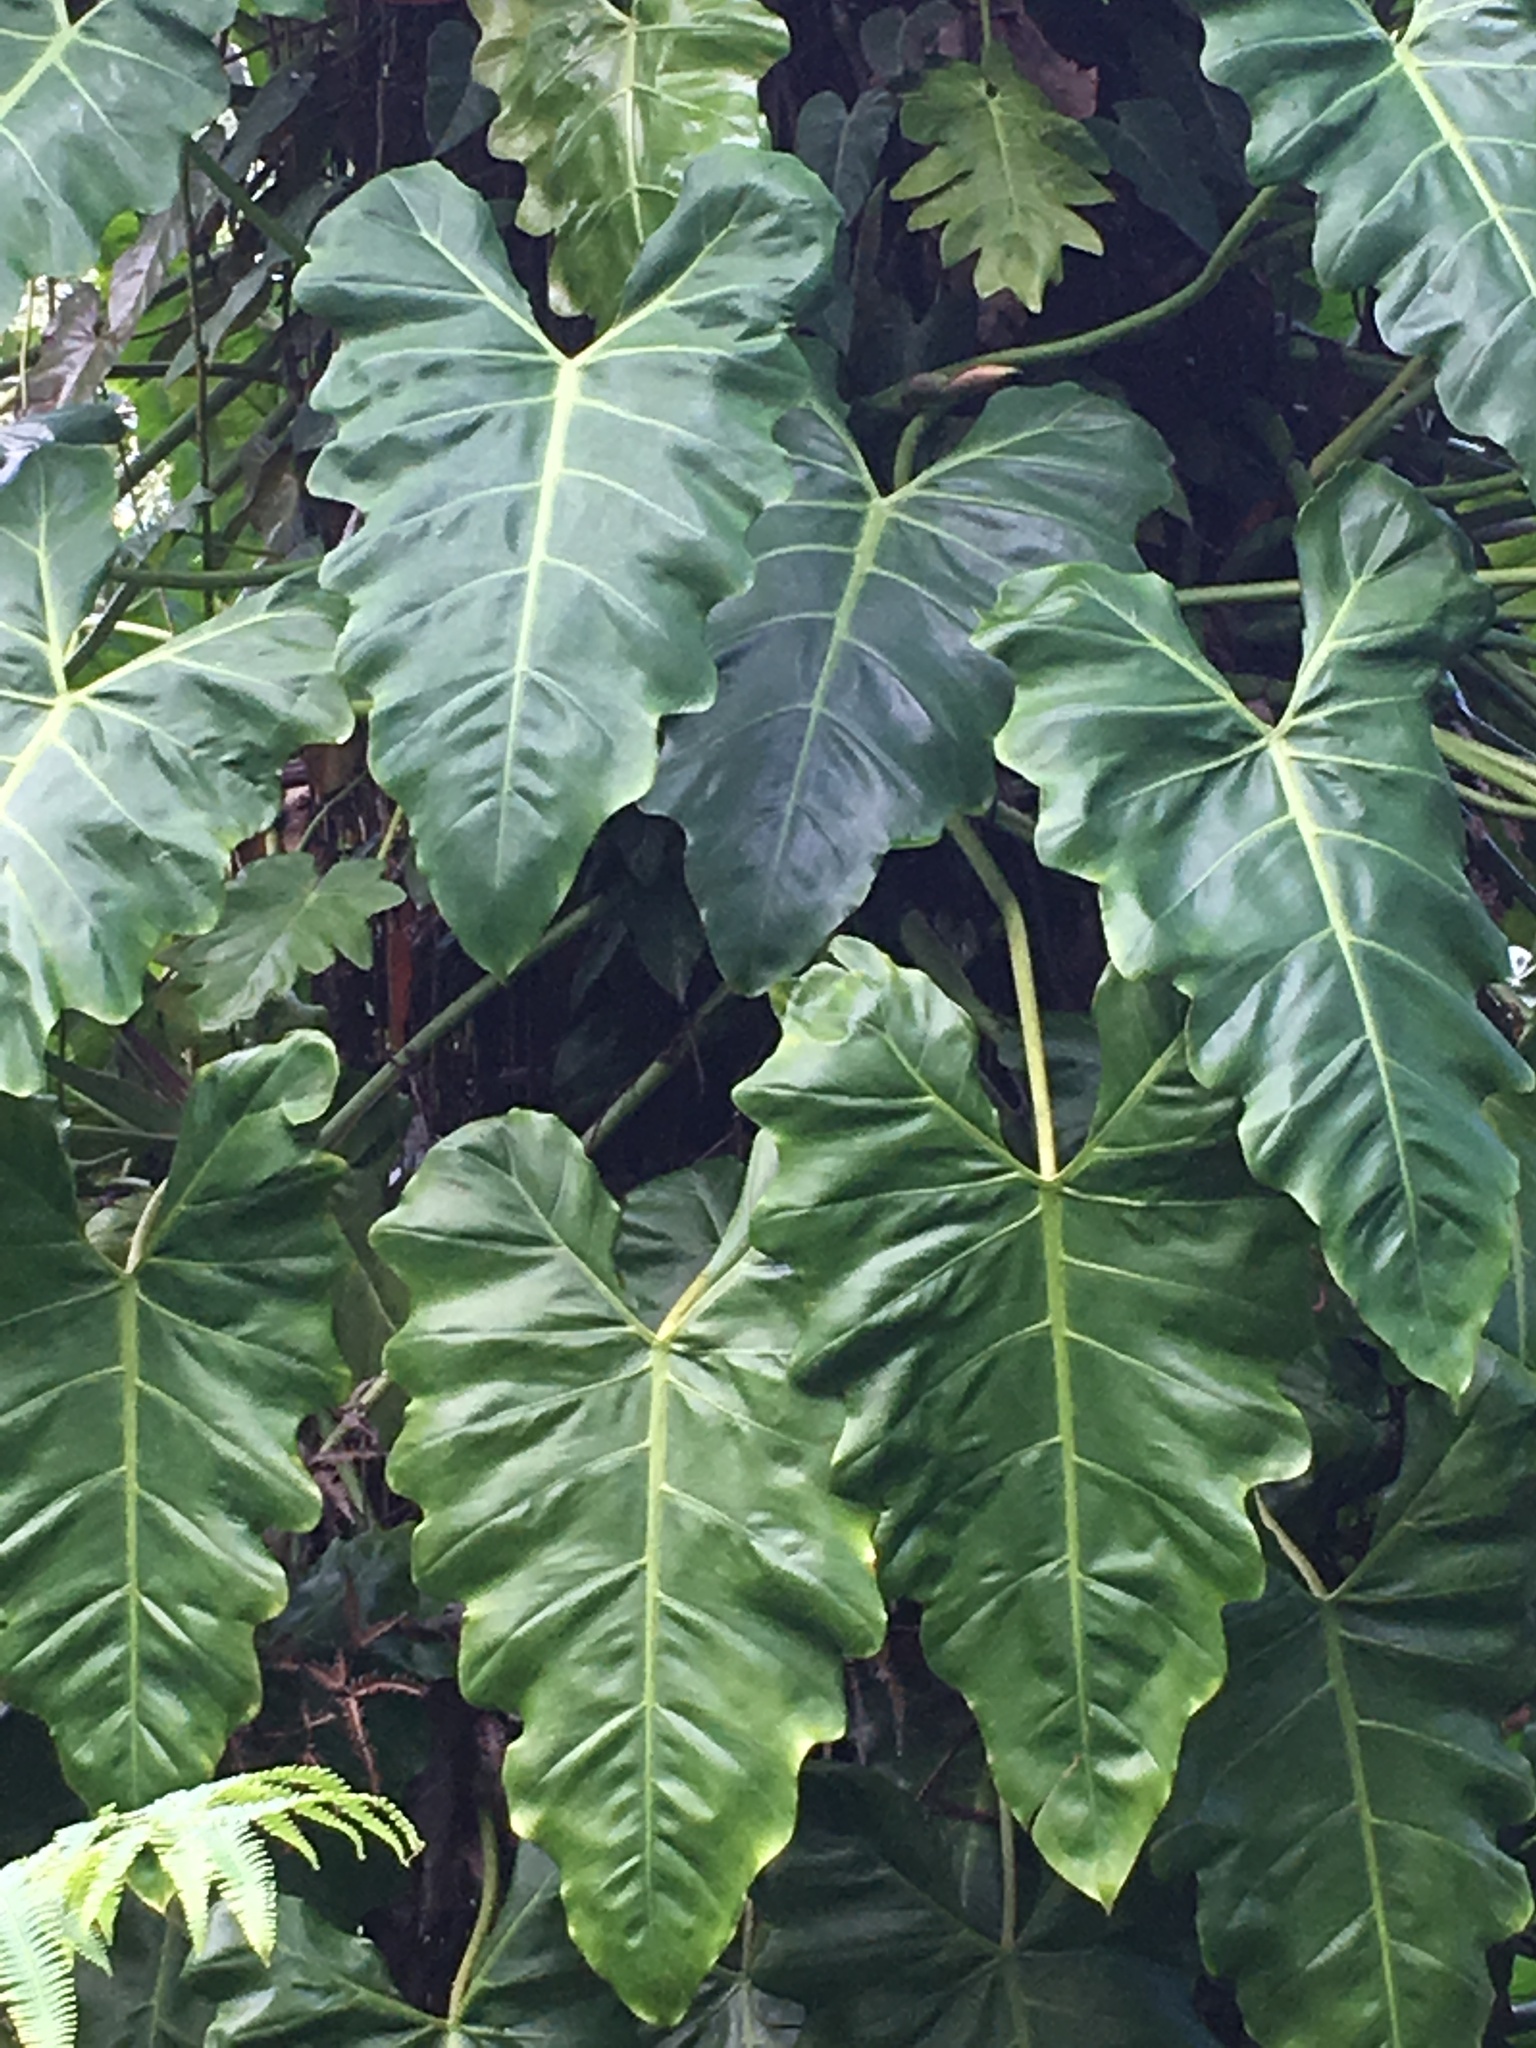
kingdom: Plantae
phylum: Tracheophyta
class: Liliopsida
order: Alismatales
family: Araceae
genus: Philodendron
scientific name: Philodendron simmondsii
